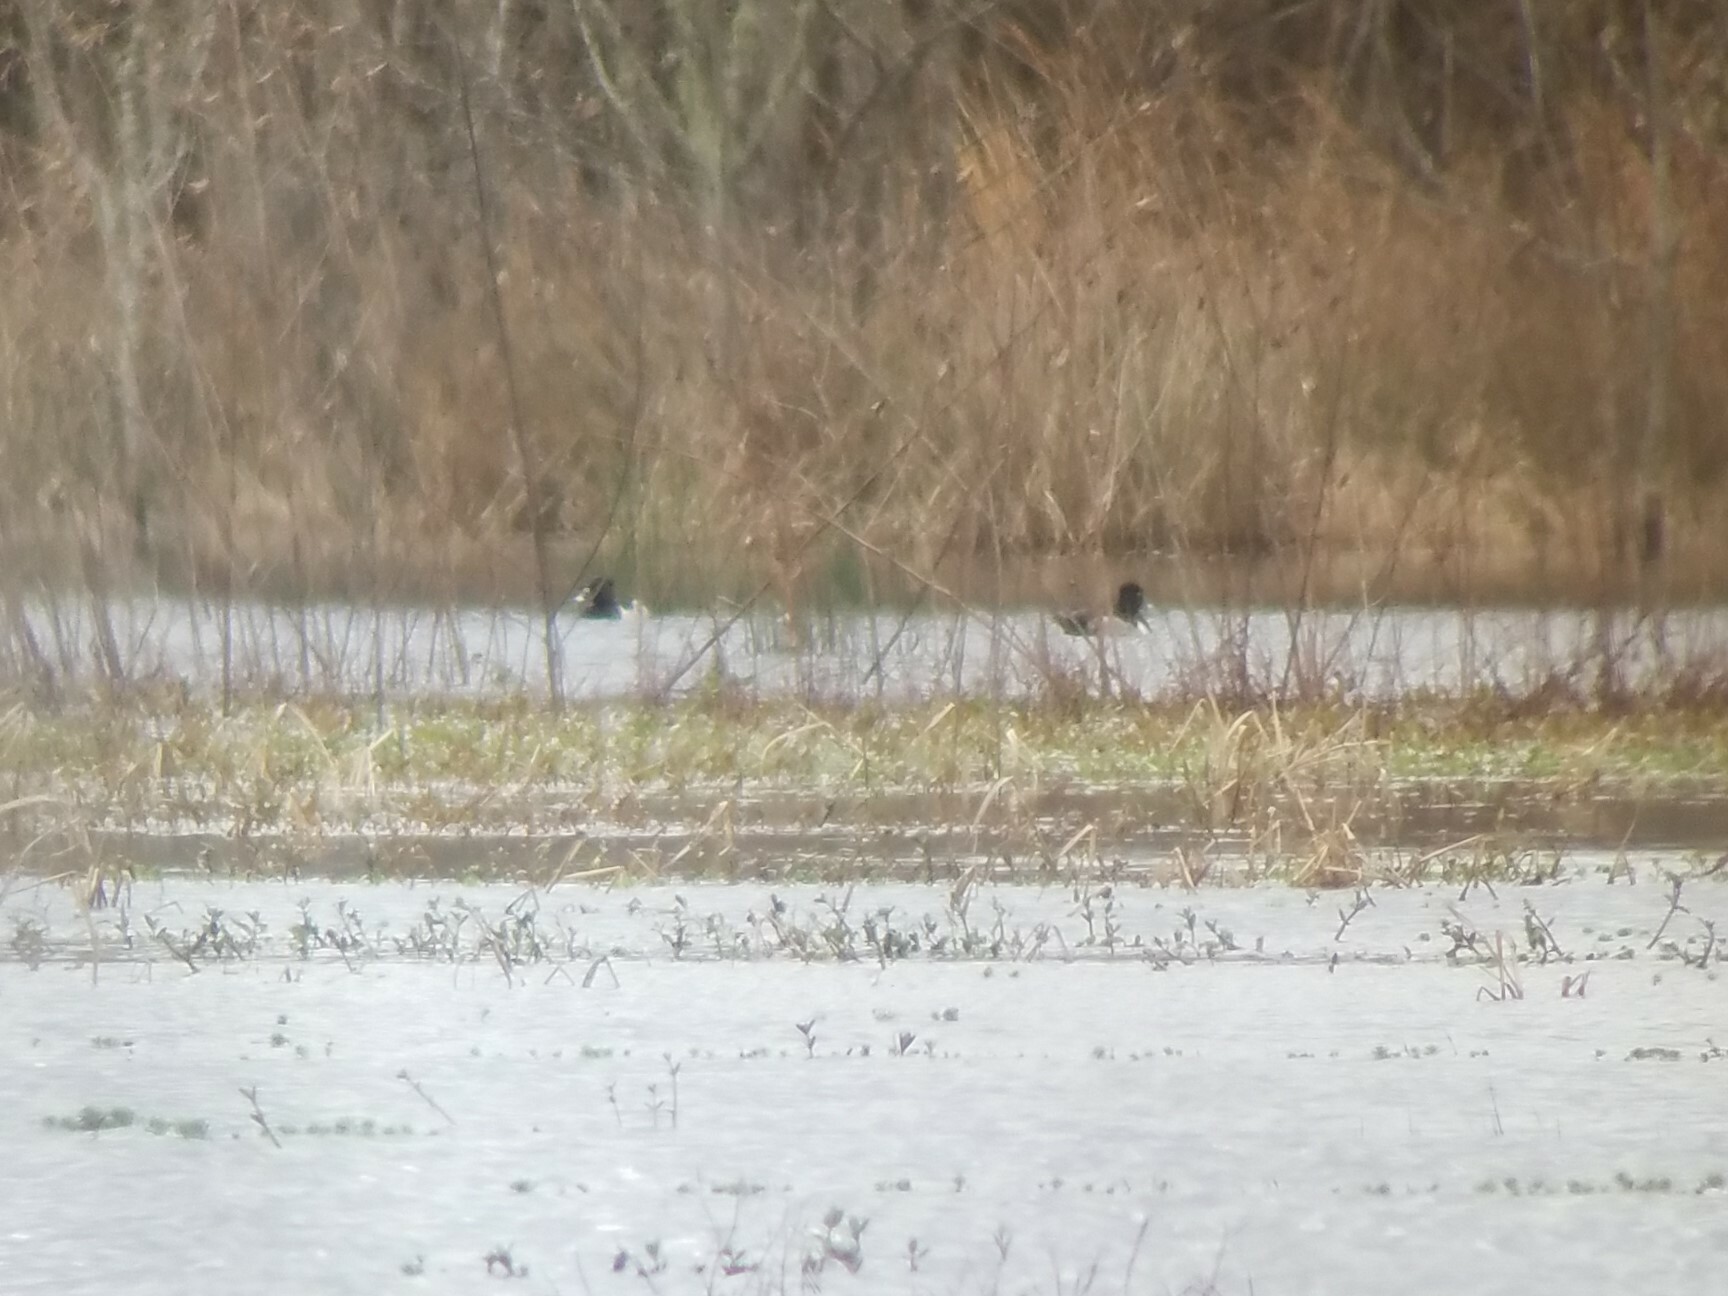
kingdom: Animalia
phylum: Chordata
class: Aves
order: Anseriformes
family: Anatidae
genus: Aythya
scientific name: Aythya collaris
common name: Ring-necked duck
